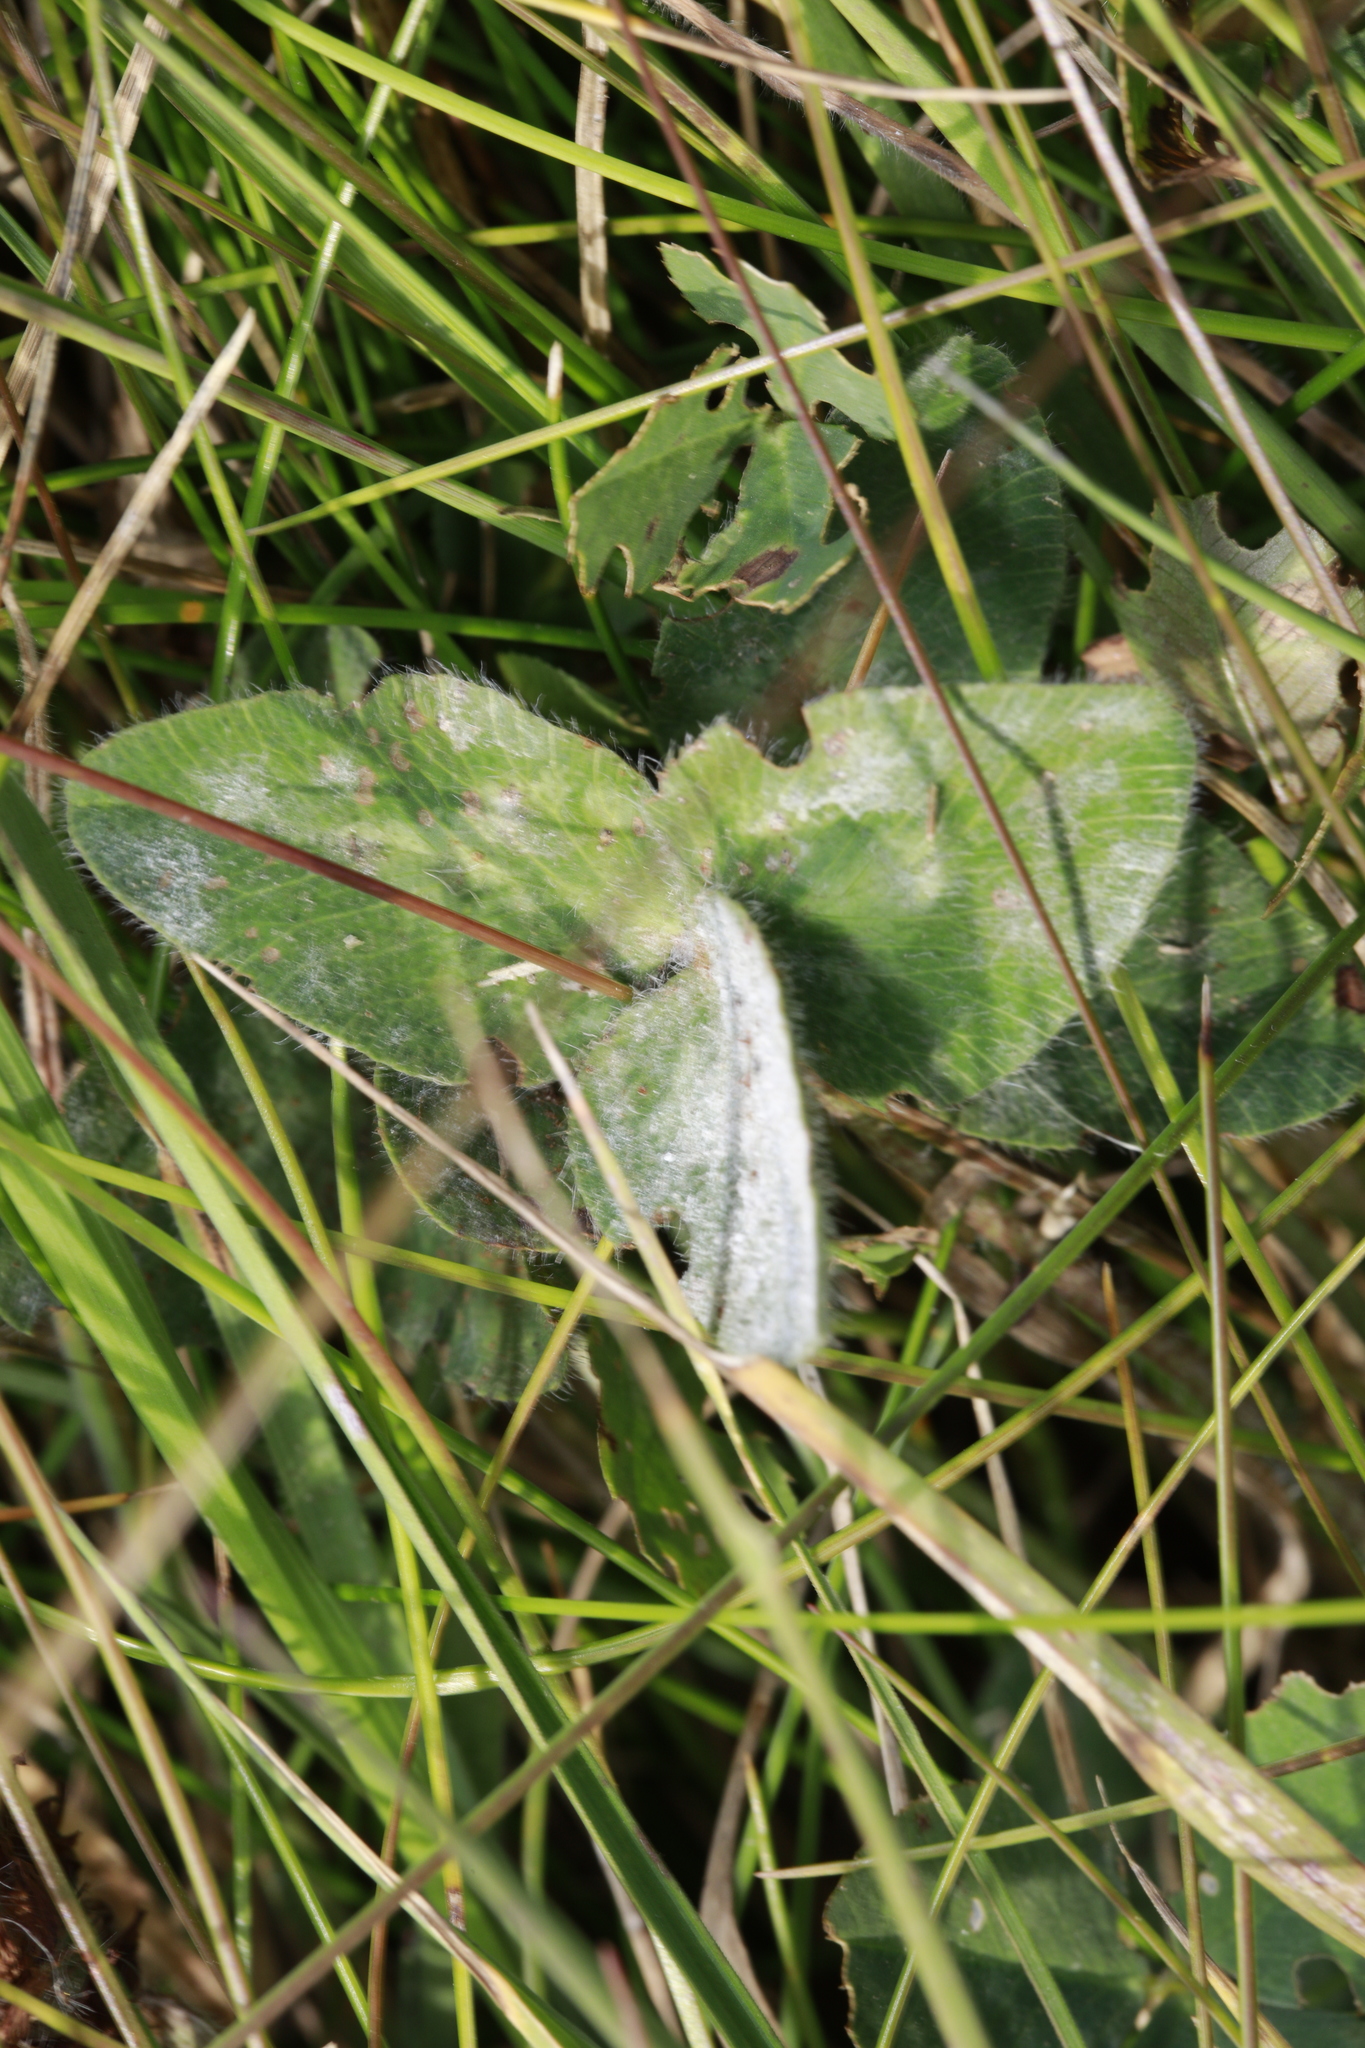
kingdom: Plantae
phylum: Tracheophyta
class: Magnoliopsida
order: Fabales
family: Fabaceae
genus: Trifolium
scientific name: Trifolium pratense
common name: Red clover
